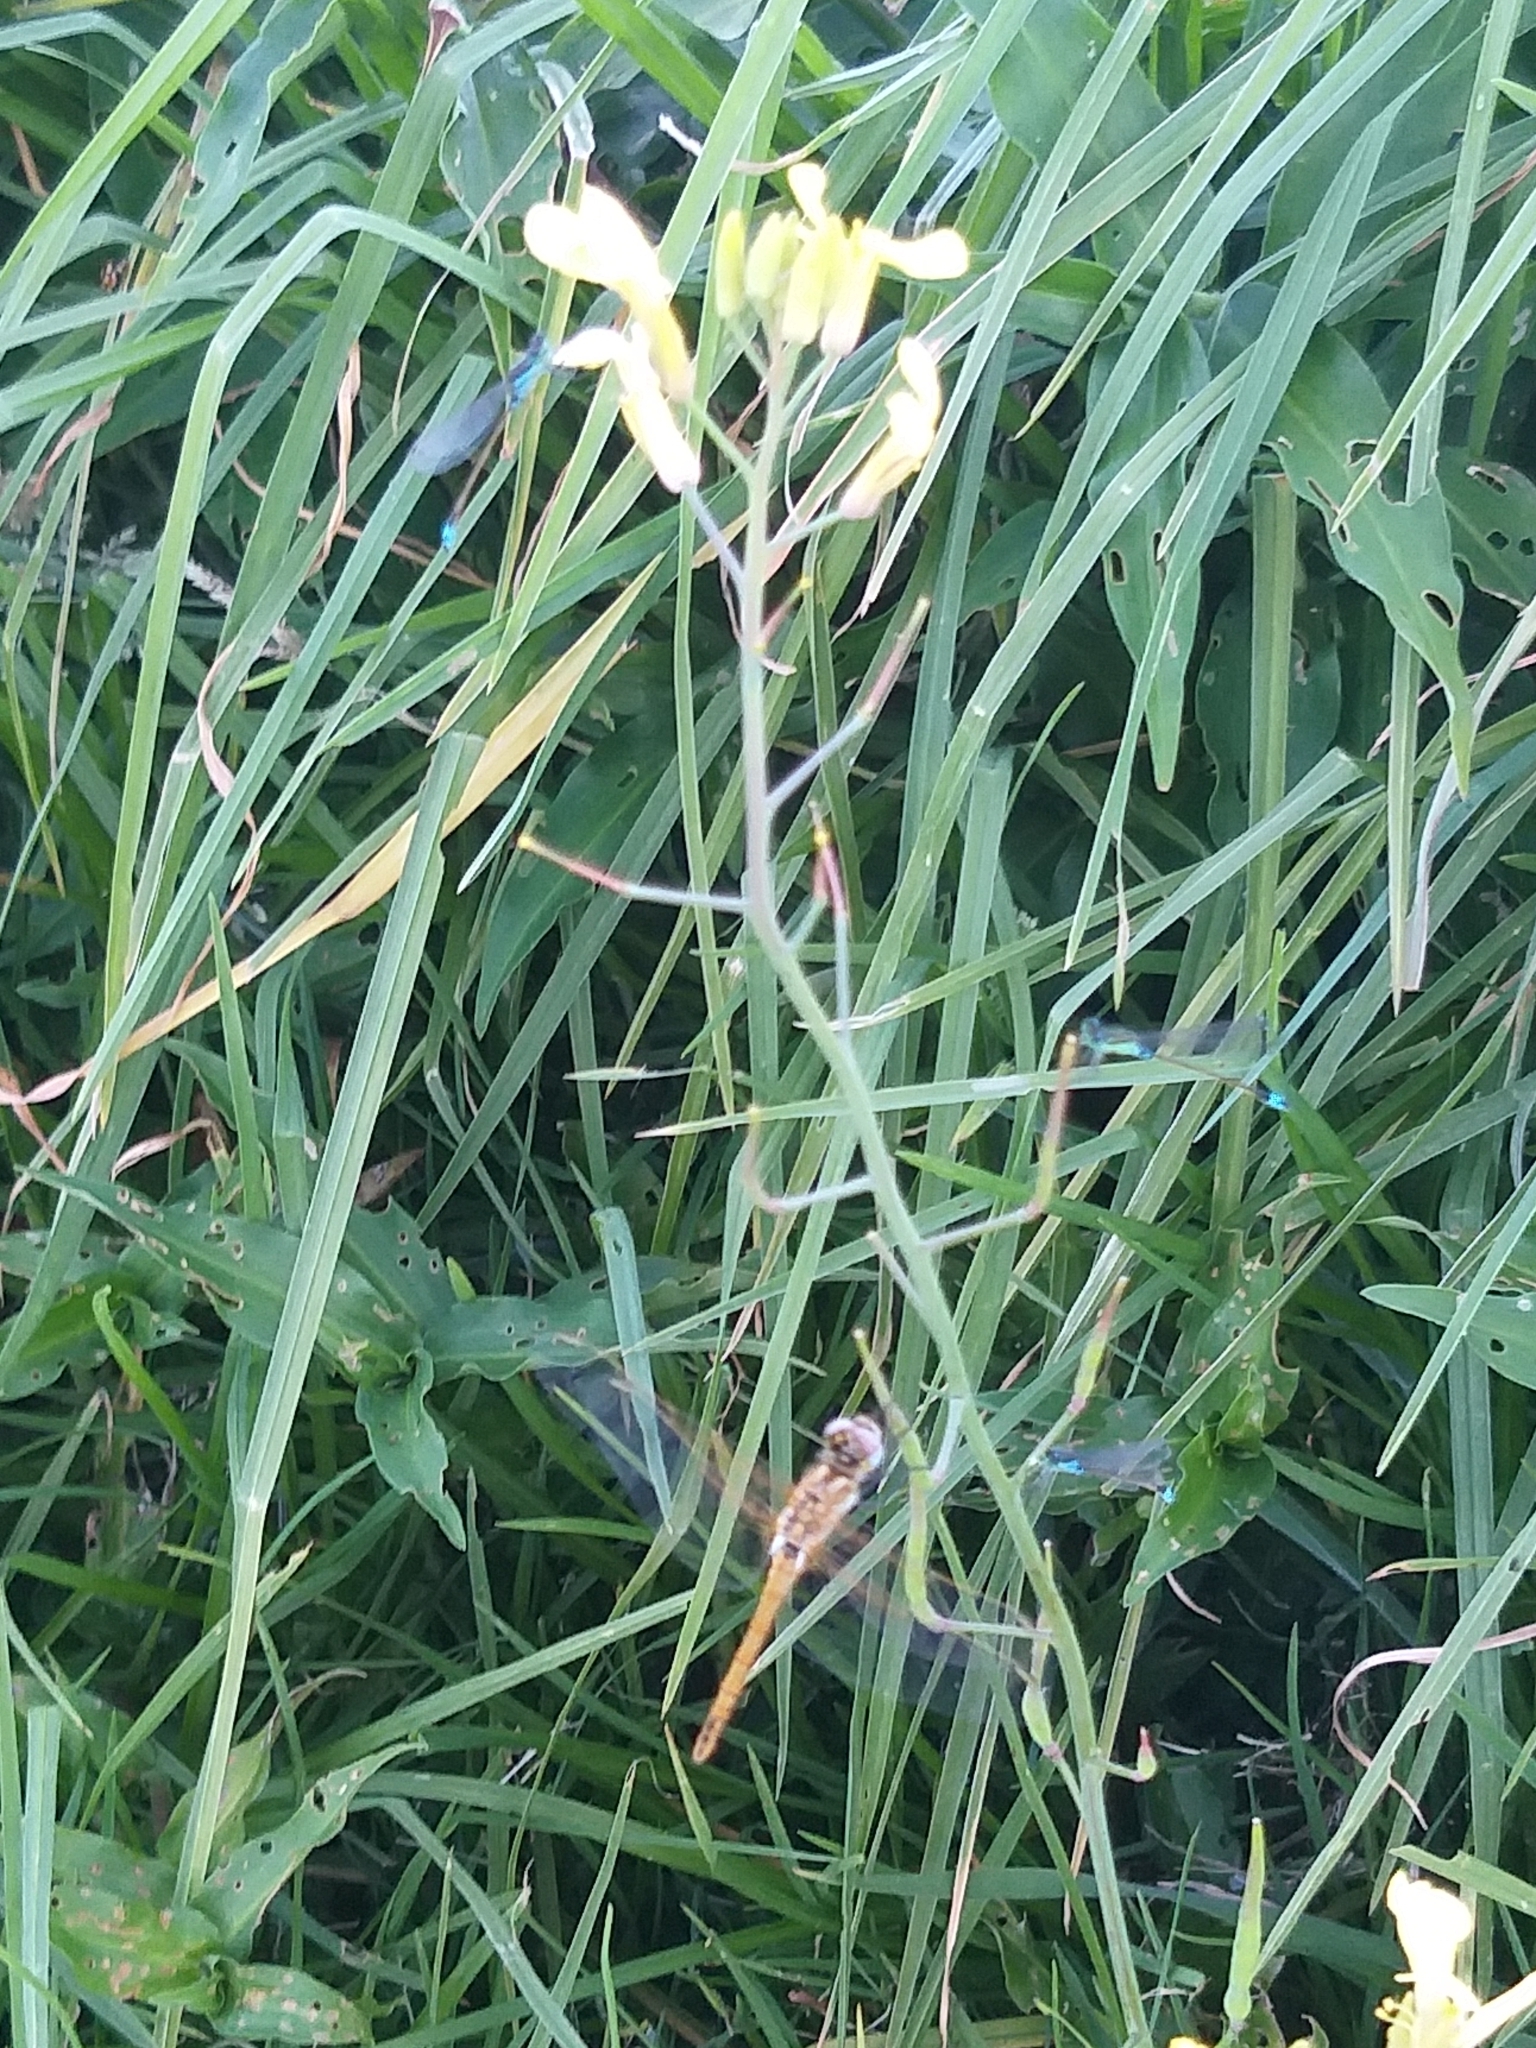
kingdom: Animalia
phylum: Arthropoda
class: Insecta
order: Odonata
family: Libellulidae
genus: Sympetrum
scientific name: Sympetrum fonscolombii
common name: Red-veined darter
